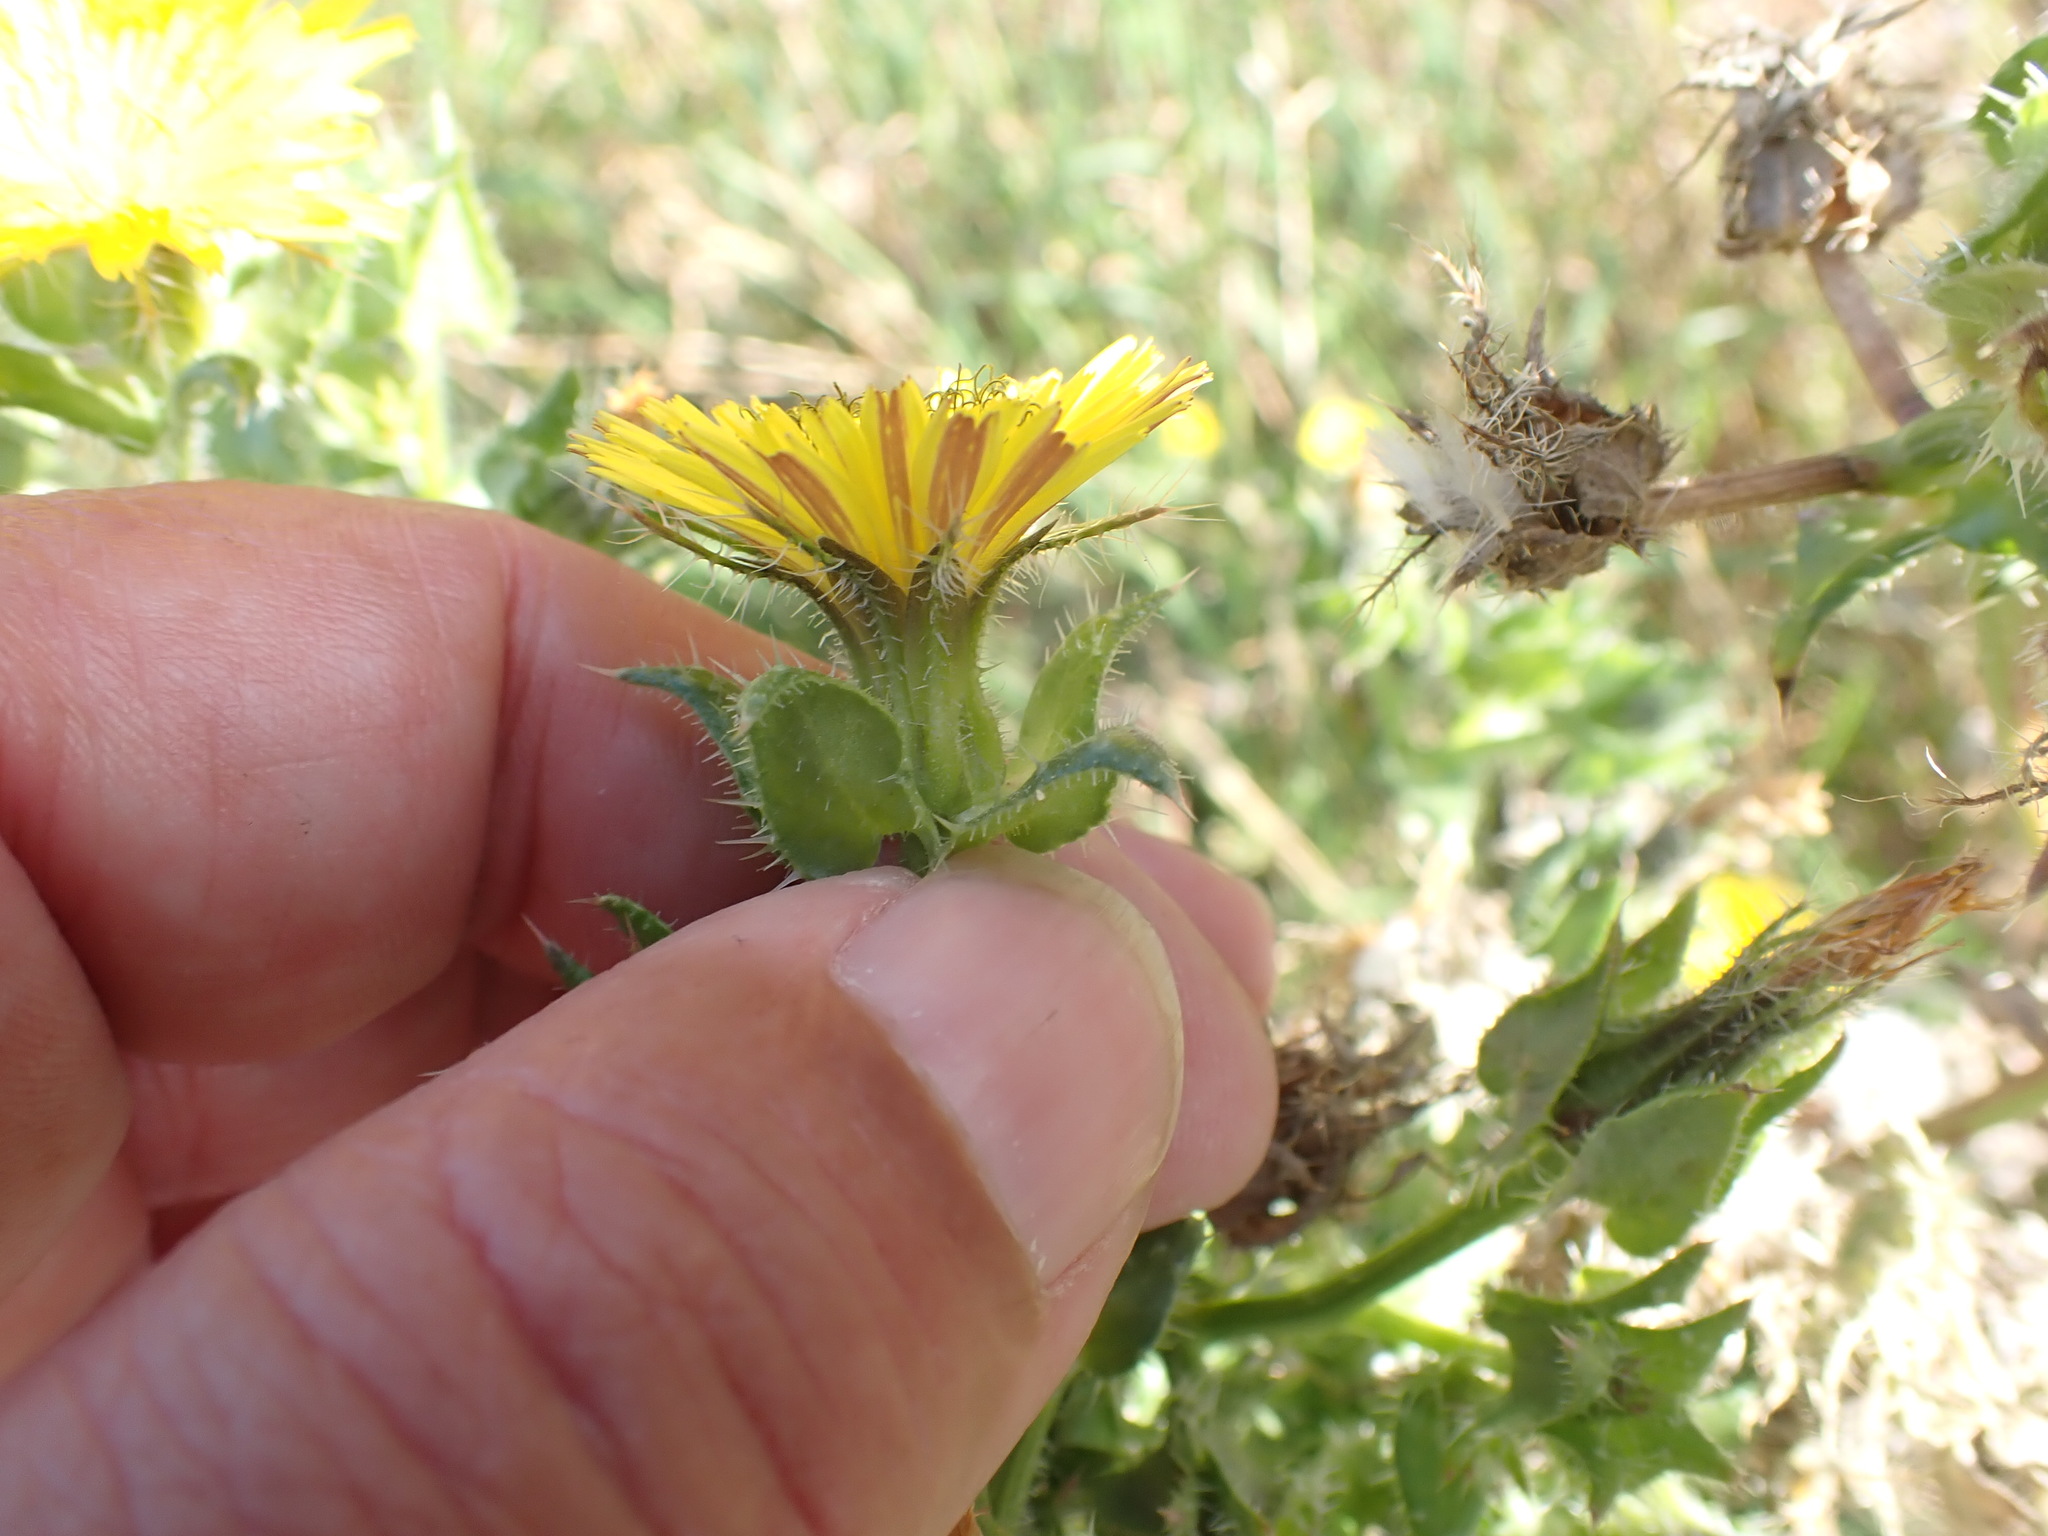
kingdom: Plantae
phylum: Tracheophyta
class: Magnoliopsida
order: Asterales
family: Asteraceae
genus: Helminthotheca
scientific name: Helminthotheca echioides
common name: Ox-tongue
